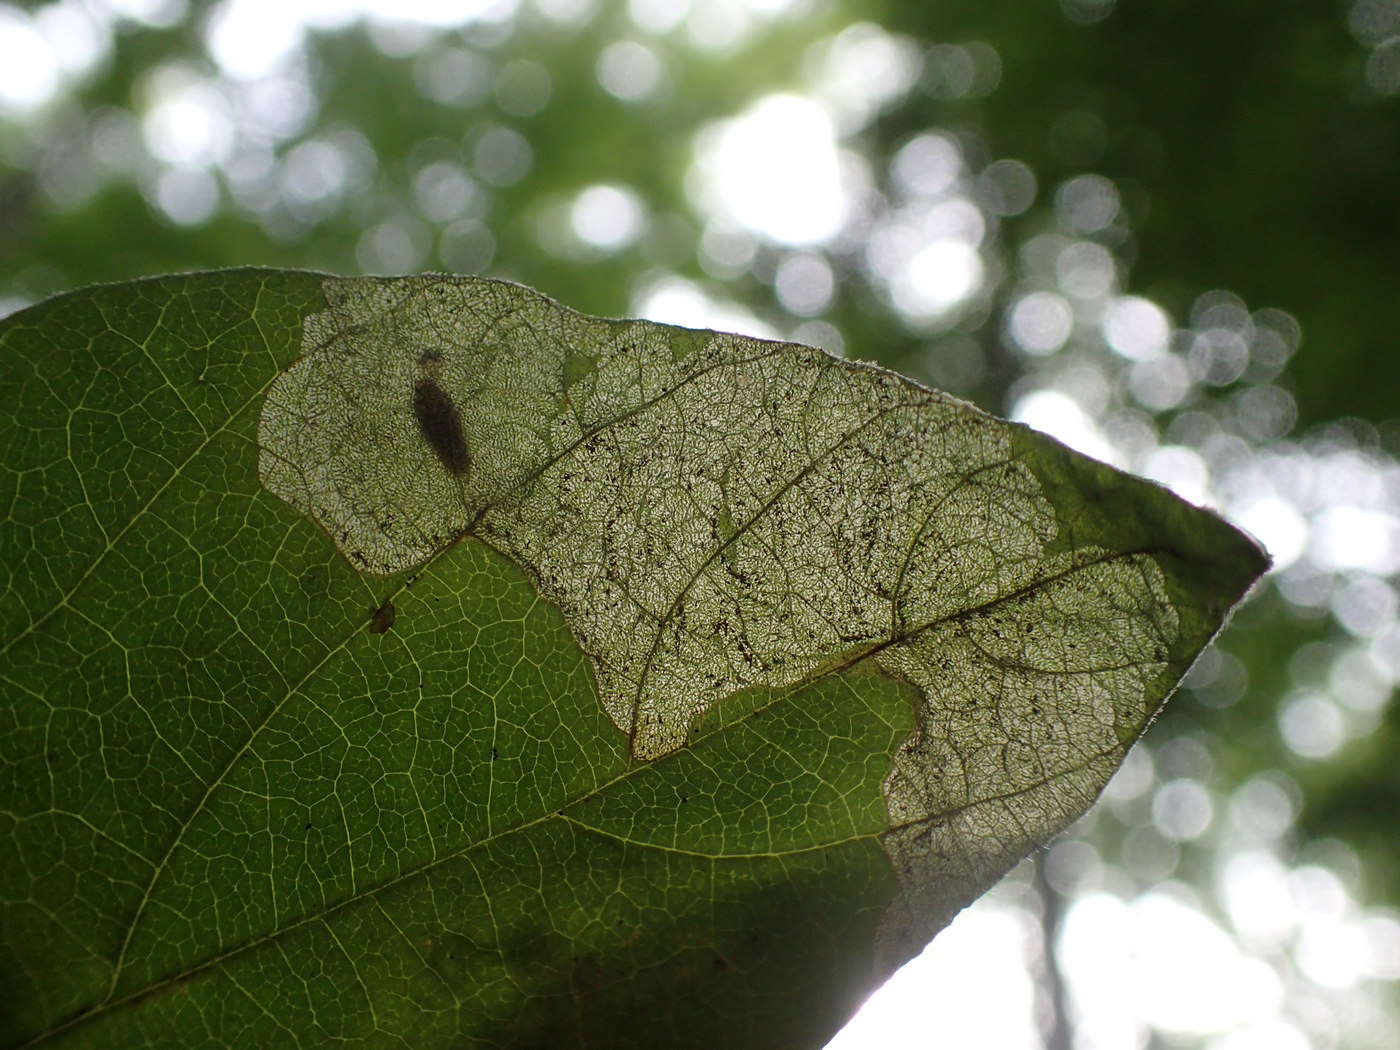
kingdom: Animalia
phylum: Arthropoda
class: Insecta
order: Coleoptera
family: Chrysomelidae
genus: Sumitrosis
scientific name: Sumitrosis rosea
